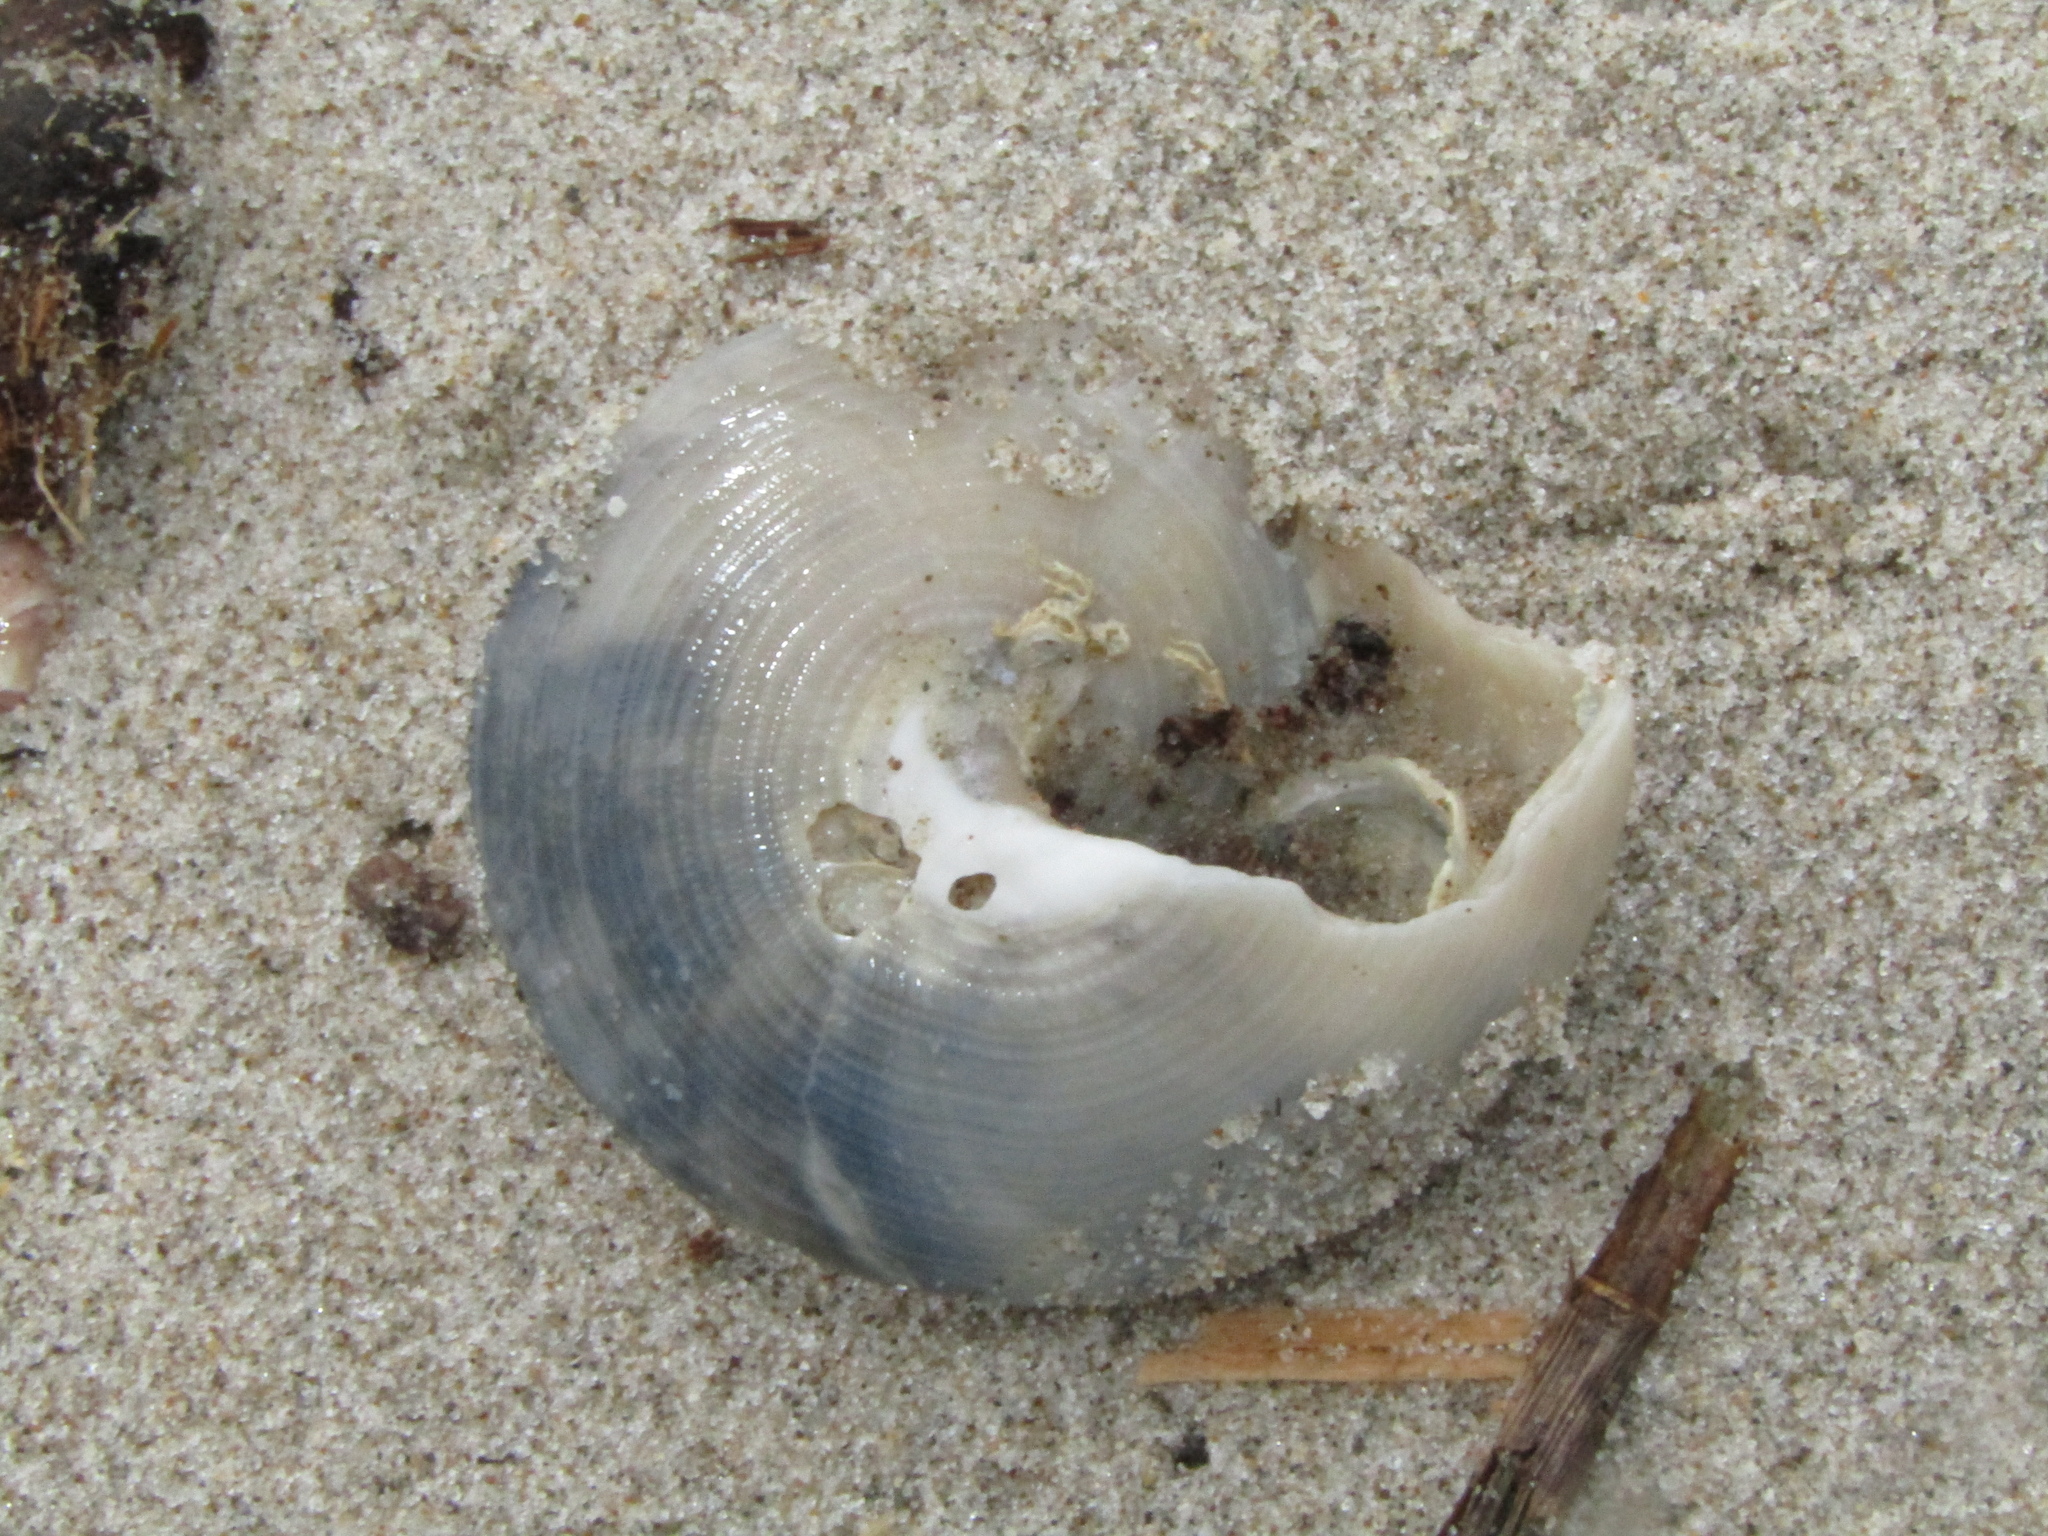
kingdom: Animalia
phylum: Mollusca
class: Gastropoda
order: Trochida
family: Calliostomatidae
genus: Maurea
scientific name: Maurea selecta
